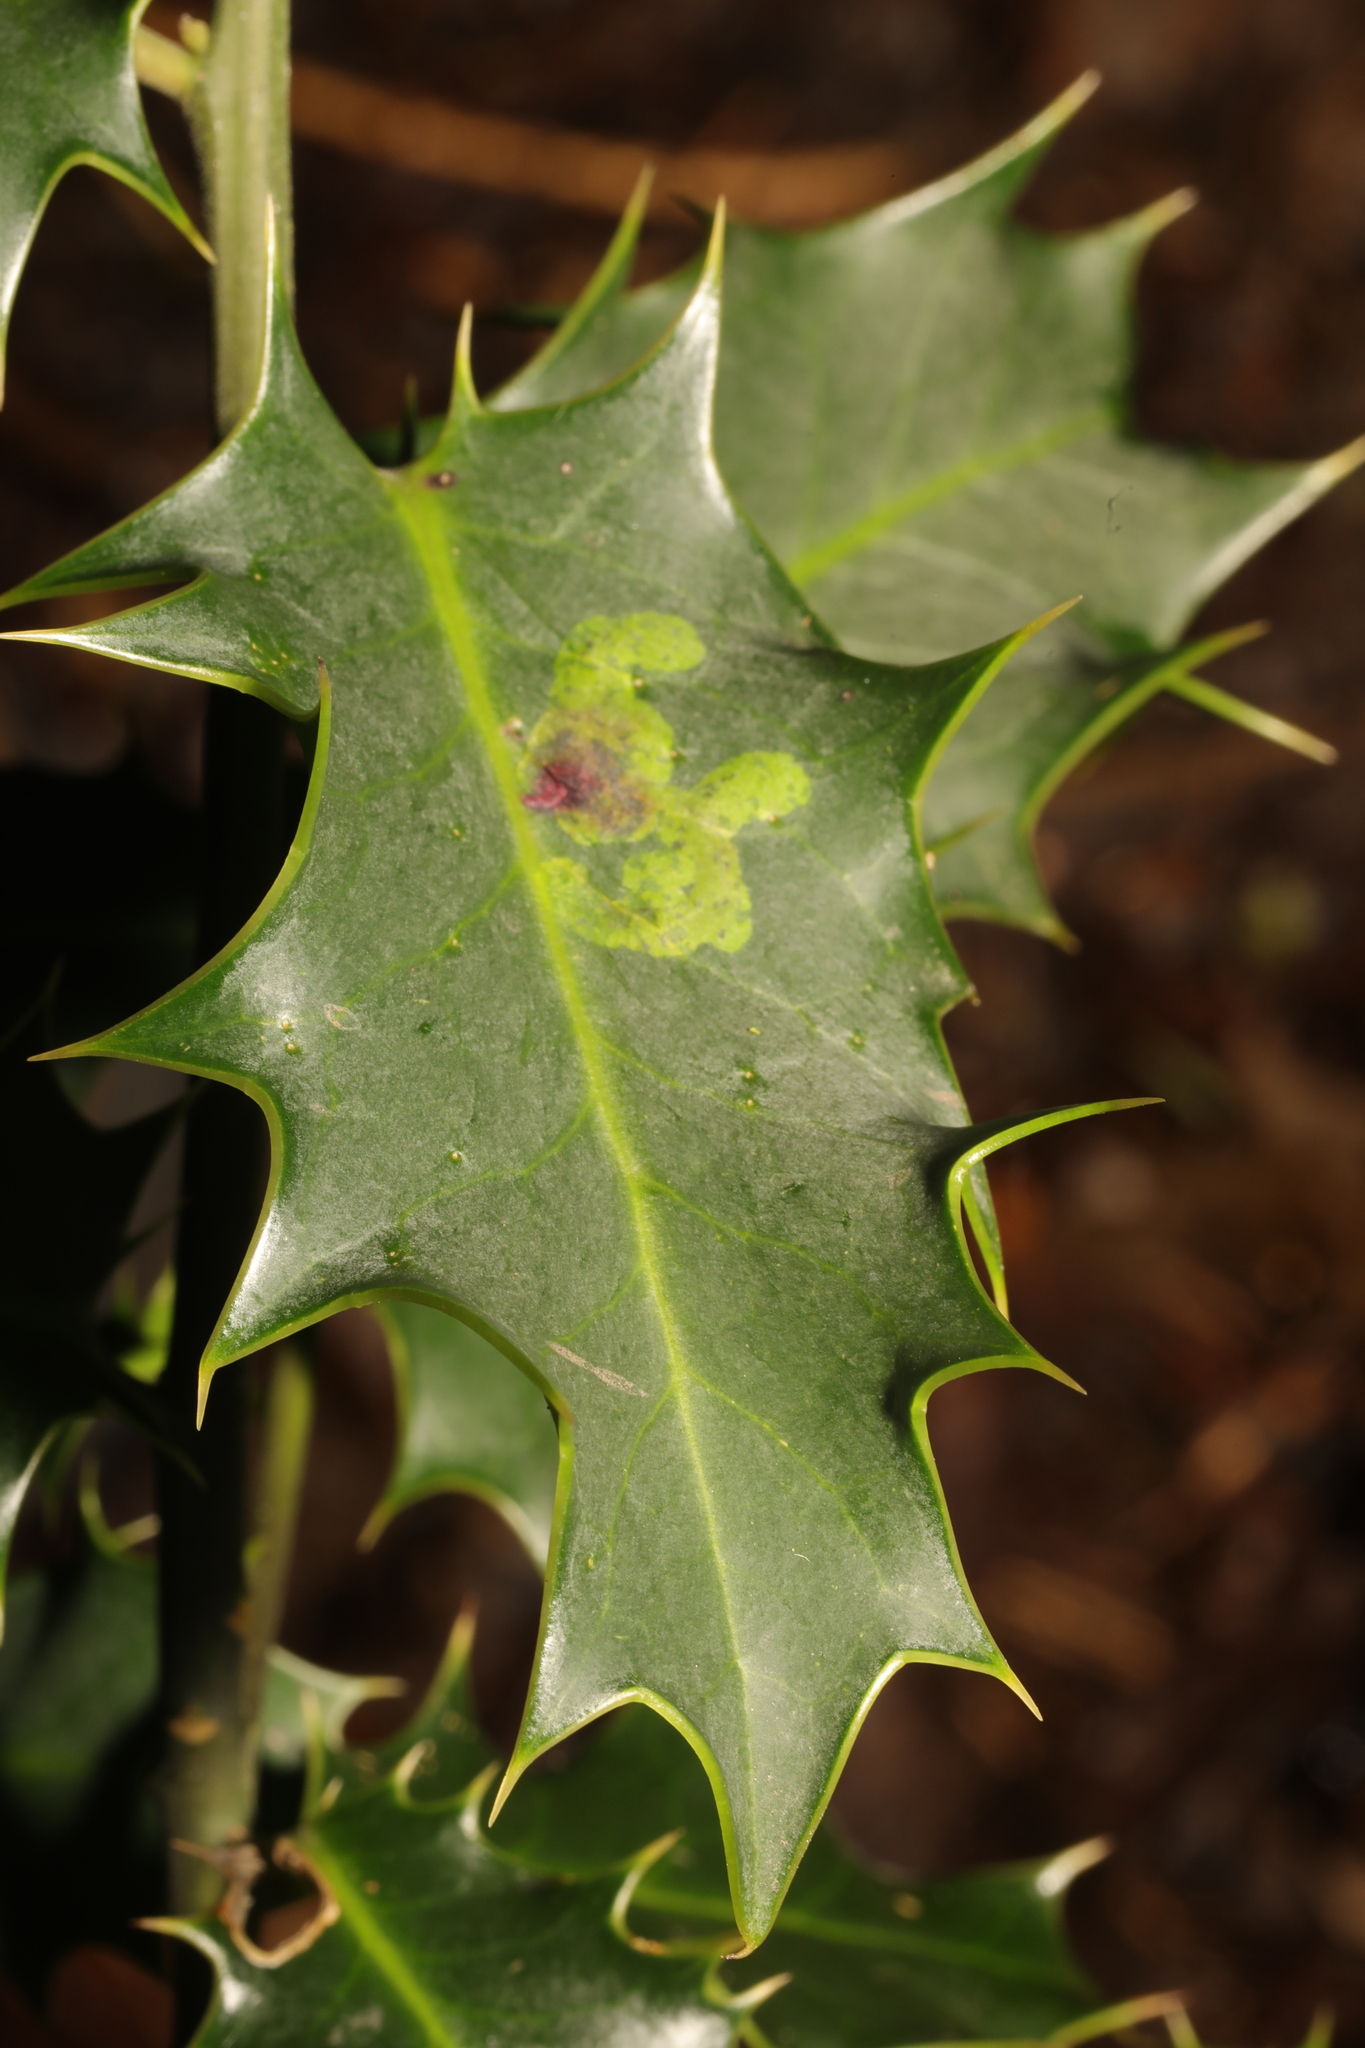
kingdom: Animalia
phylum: Arthropoda
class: Insecta
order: Diptera
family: Agromyzidae
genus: Phytomyza
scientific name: Phytomyza ilicis
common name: Holly leafminer
